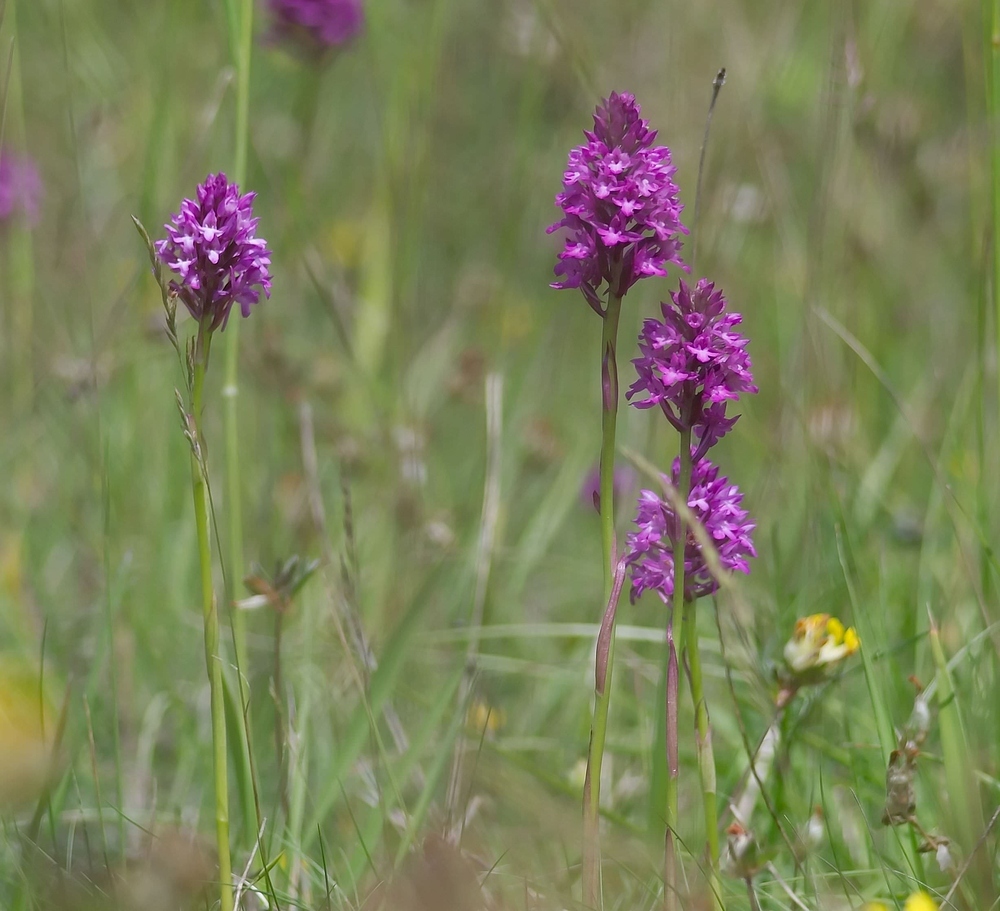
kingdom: Plantae
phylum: Tracheophyta
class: Liliopsida
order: Asparagales
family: Orchidaceae
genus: Anacamptis
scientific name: Anacamptis pyramidalis
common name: Pyramidal orchid
